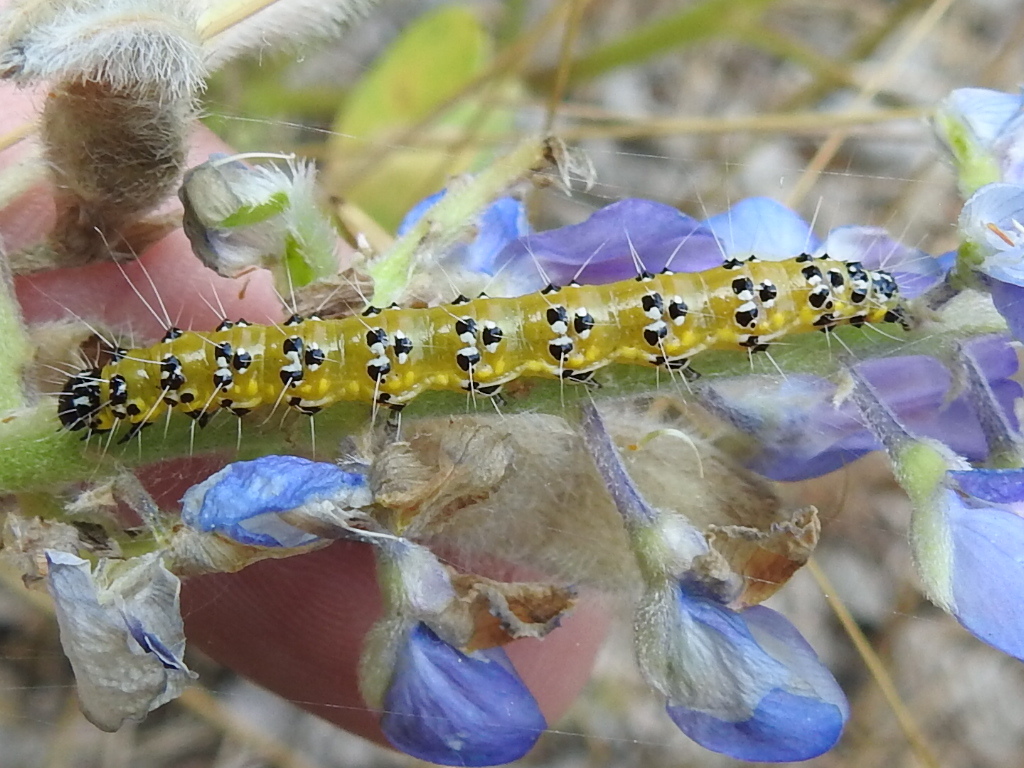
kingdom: Animalia
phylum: Arthropoda
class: Insecta
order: Lepidoptera
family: Crambidae
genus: Uresiphita
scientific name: Uresiphita reversalis
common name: Genista broom moth
